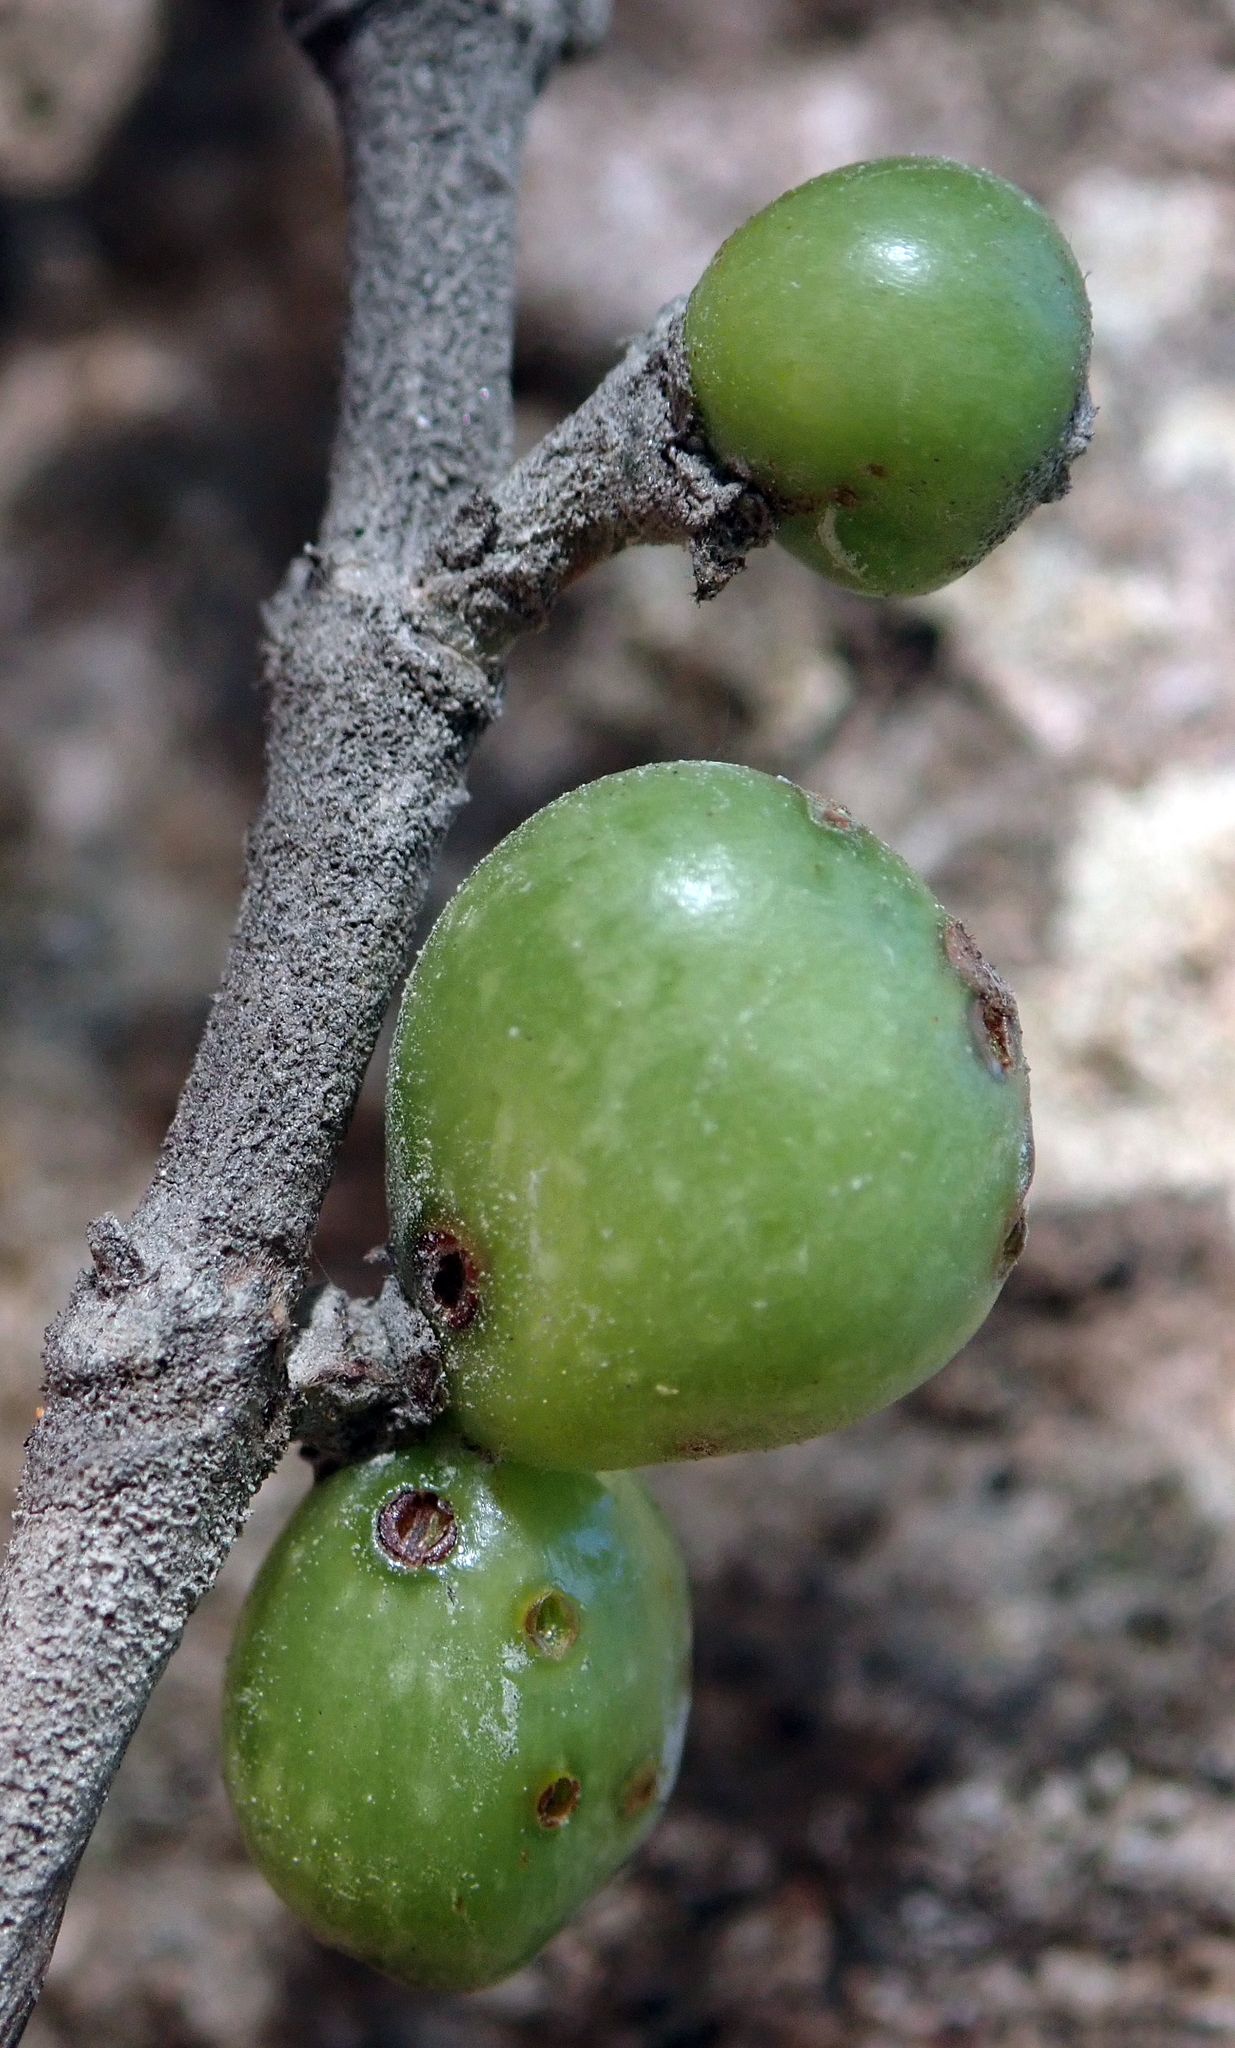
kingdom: Plantae
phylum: Tracheophyta
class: Magnoliopsida
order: Gentianales
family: Rubiaceae
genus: Coprosma
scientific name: Coprosma chathamica
